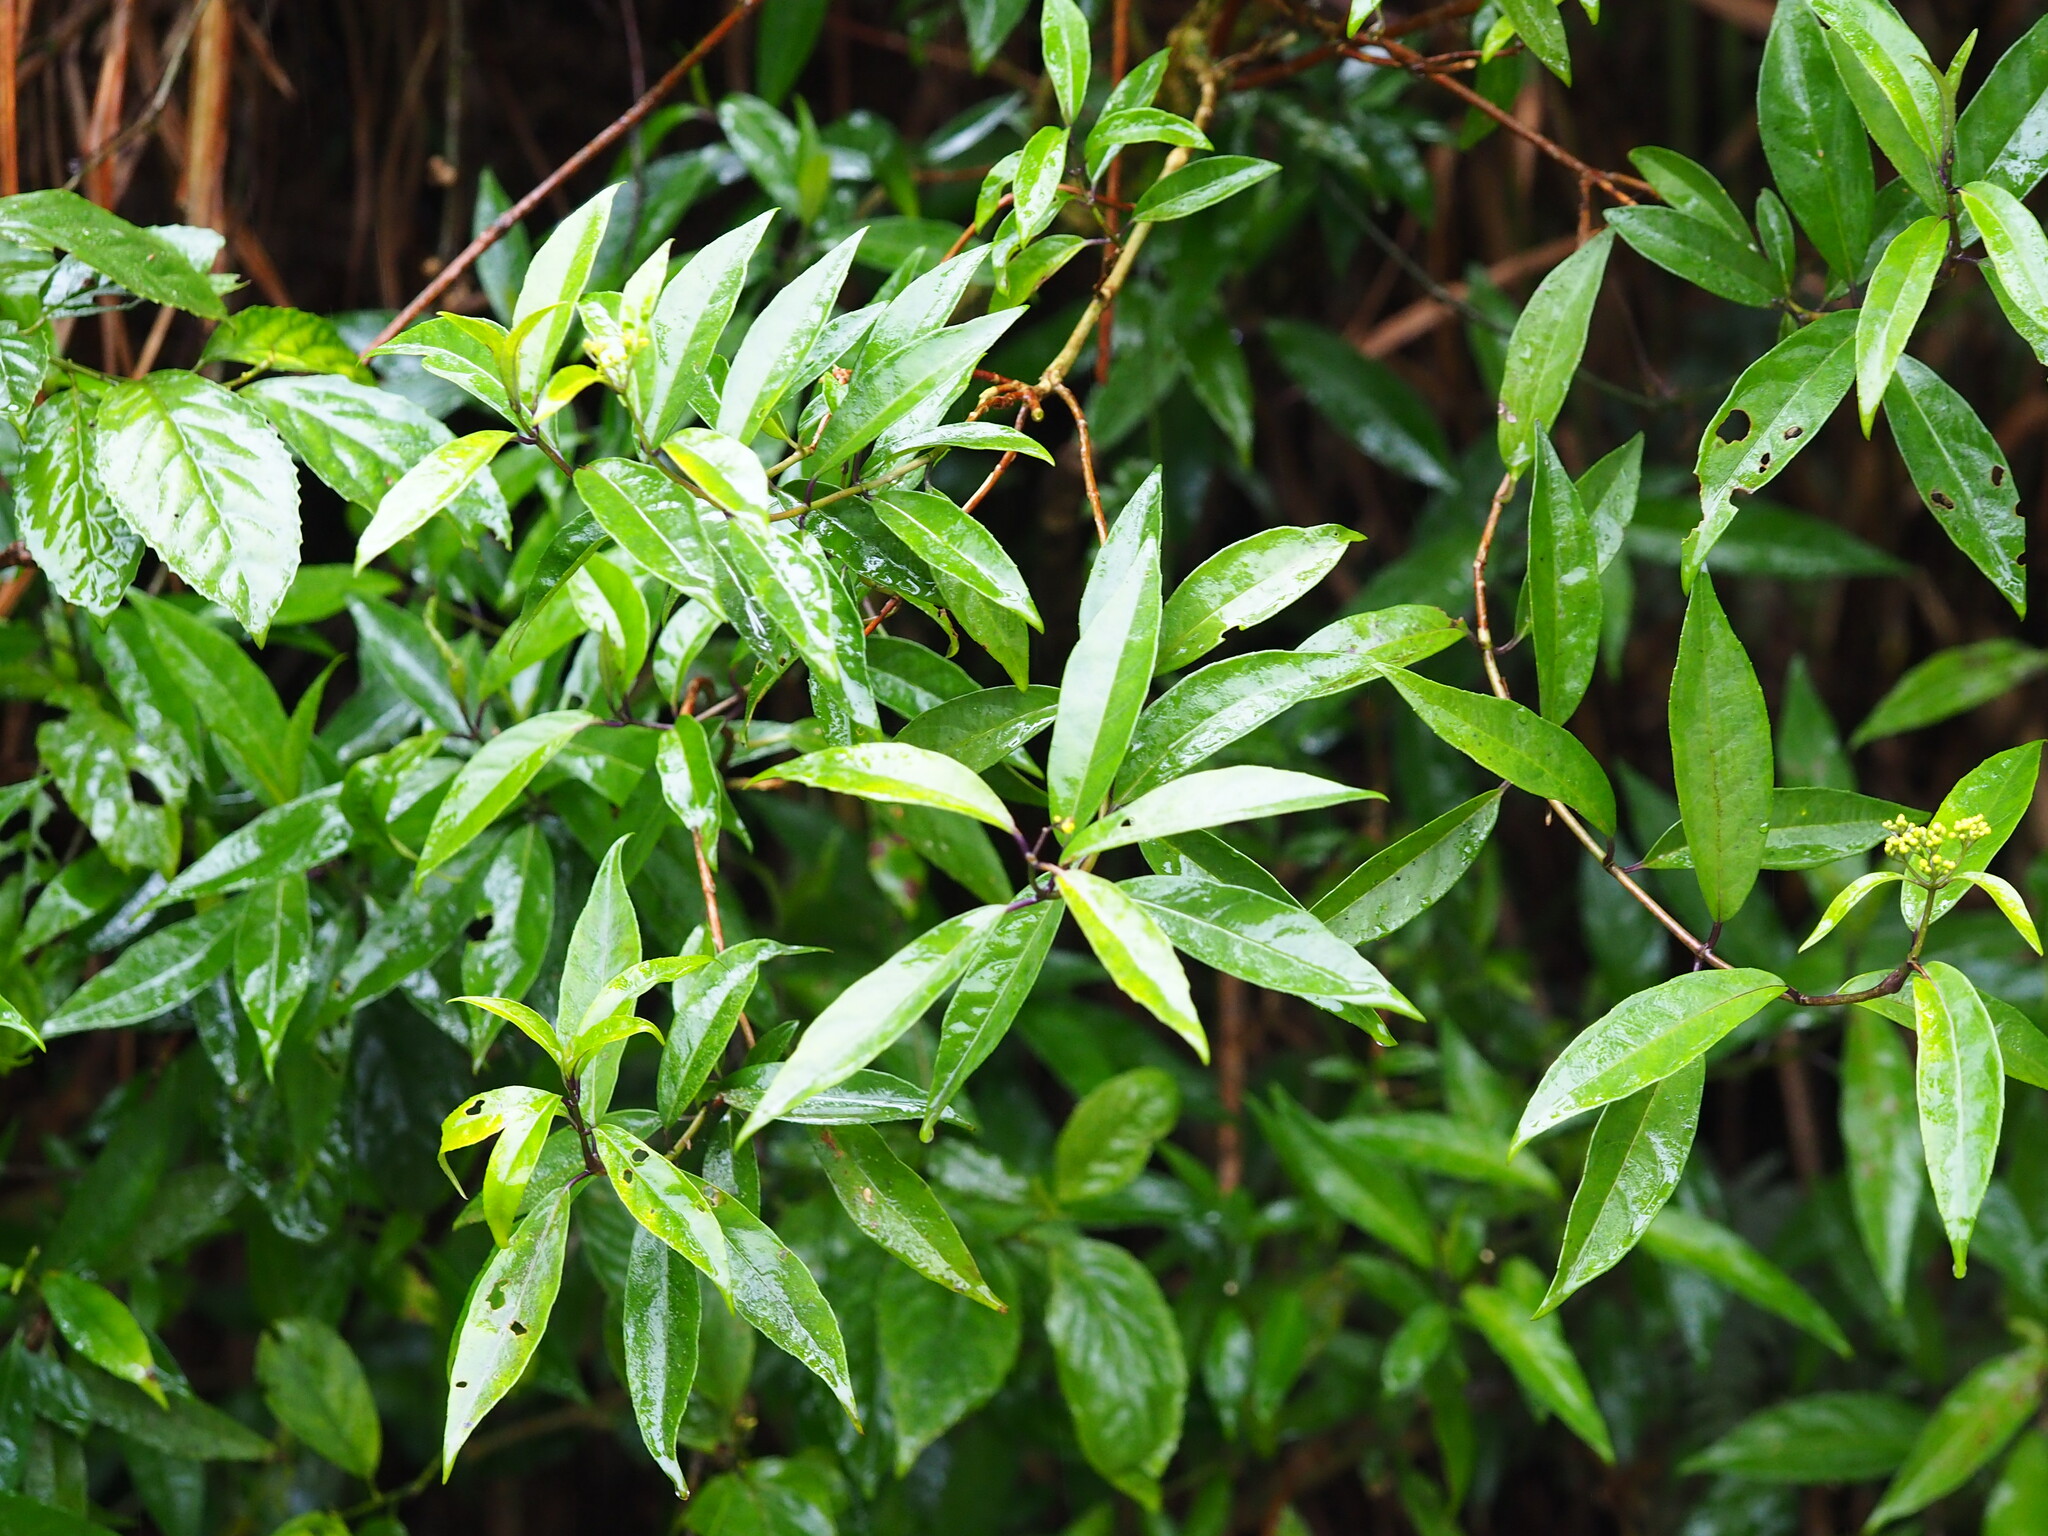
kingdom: Plantae
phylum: Tracheophyta
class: Magnoliopsida
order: Cornales
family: Hydrangeaceae
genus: Hydrangea
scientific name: Hydrangea chinensis
